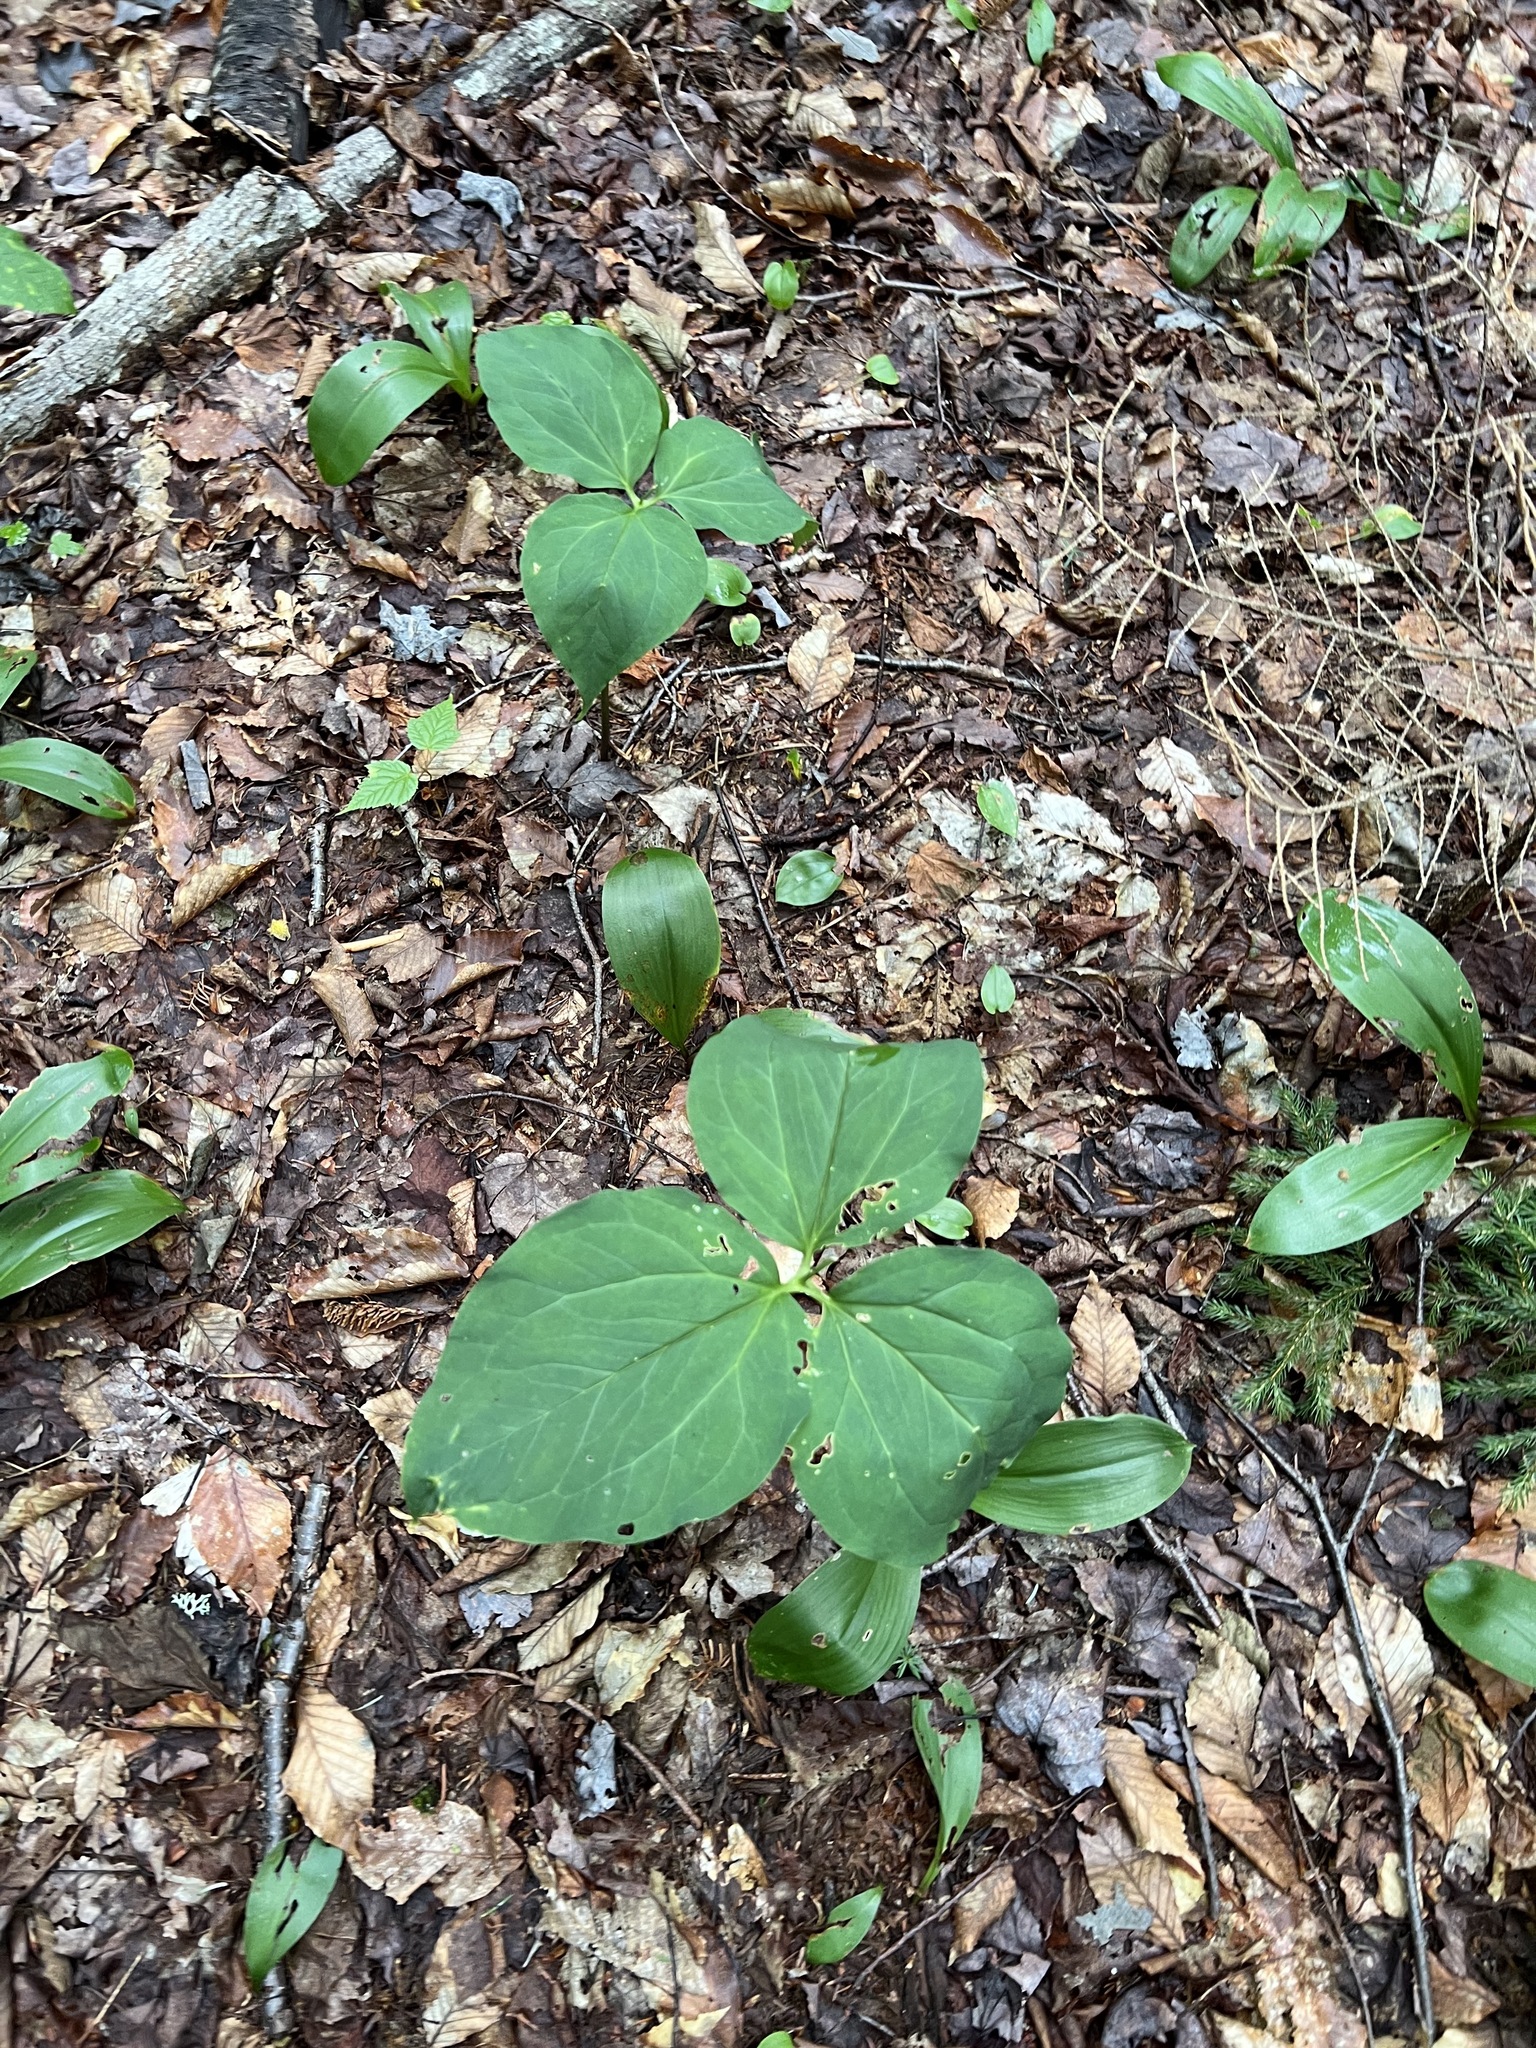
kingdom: Plantae
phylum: Tracheophyta
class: Liliopsida
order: Liliales
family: Melanthiaceae
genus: Trillium
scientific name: Trillium undulatum
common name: Paint trillium
